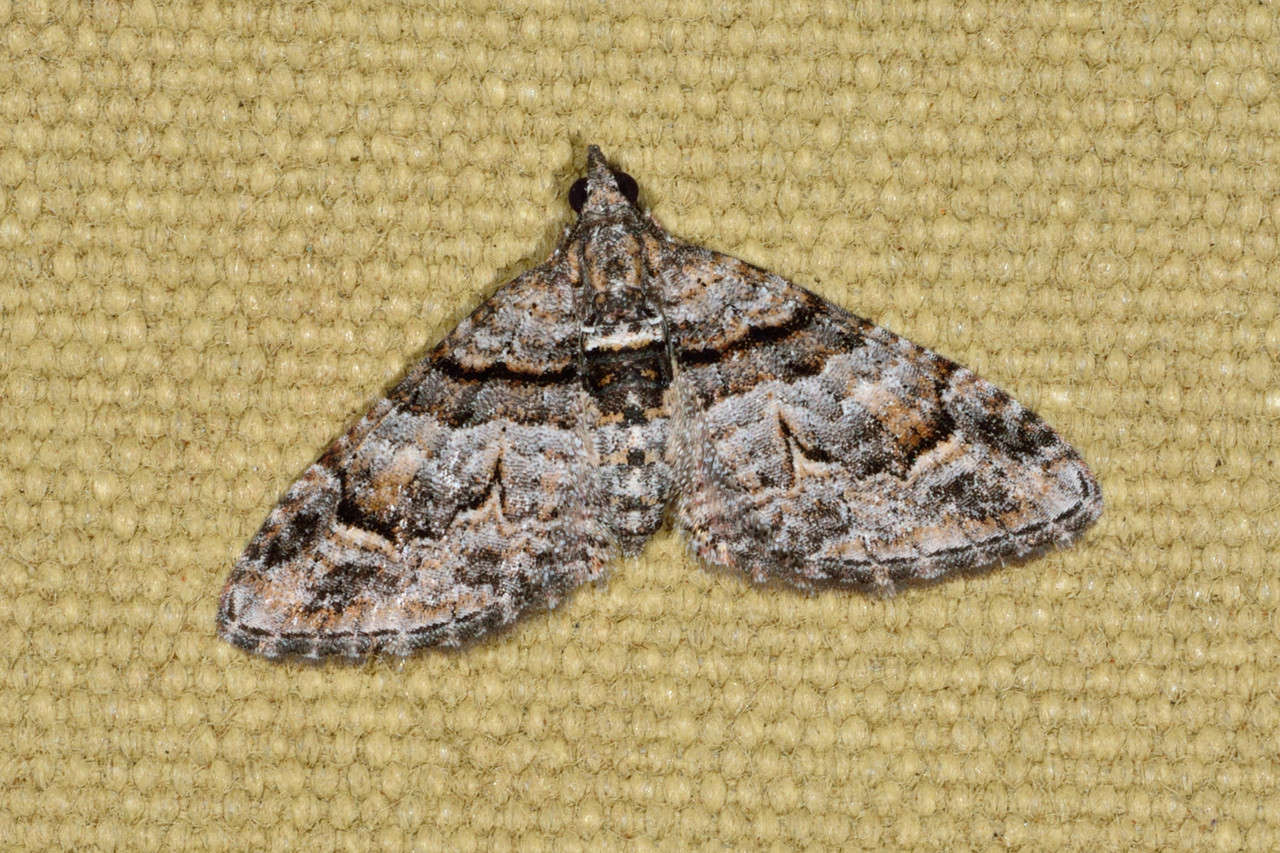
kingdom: Animalia
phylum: Arthropoda
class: Insecta
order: Lepidoptera
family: Geometridae
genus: Phrissogonus
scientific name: Phrissogonus laticostata
